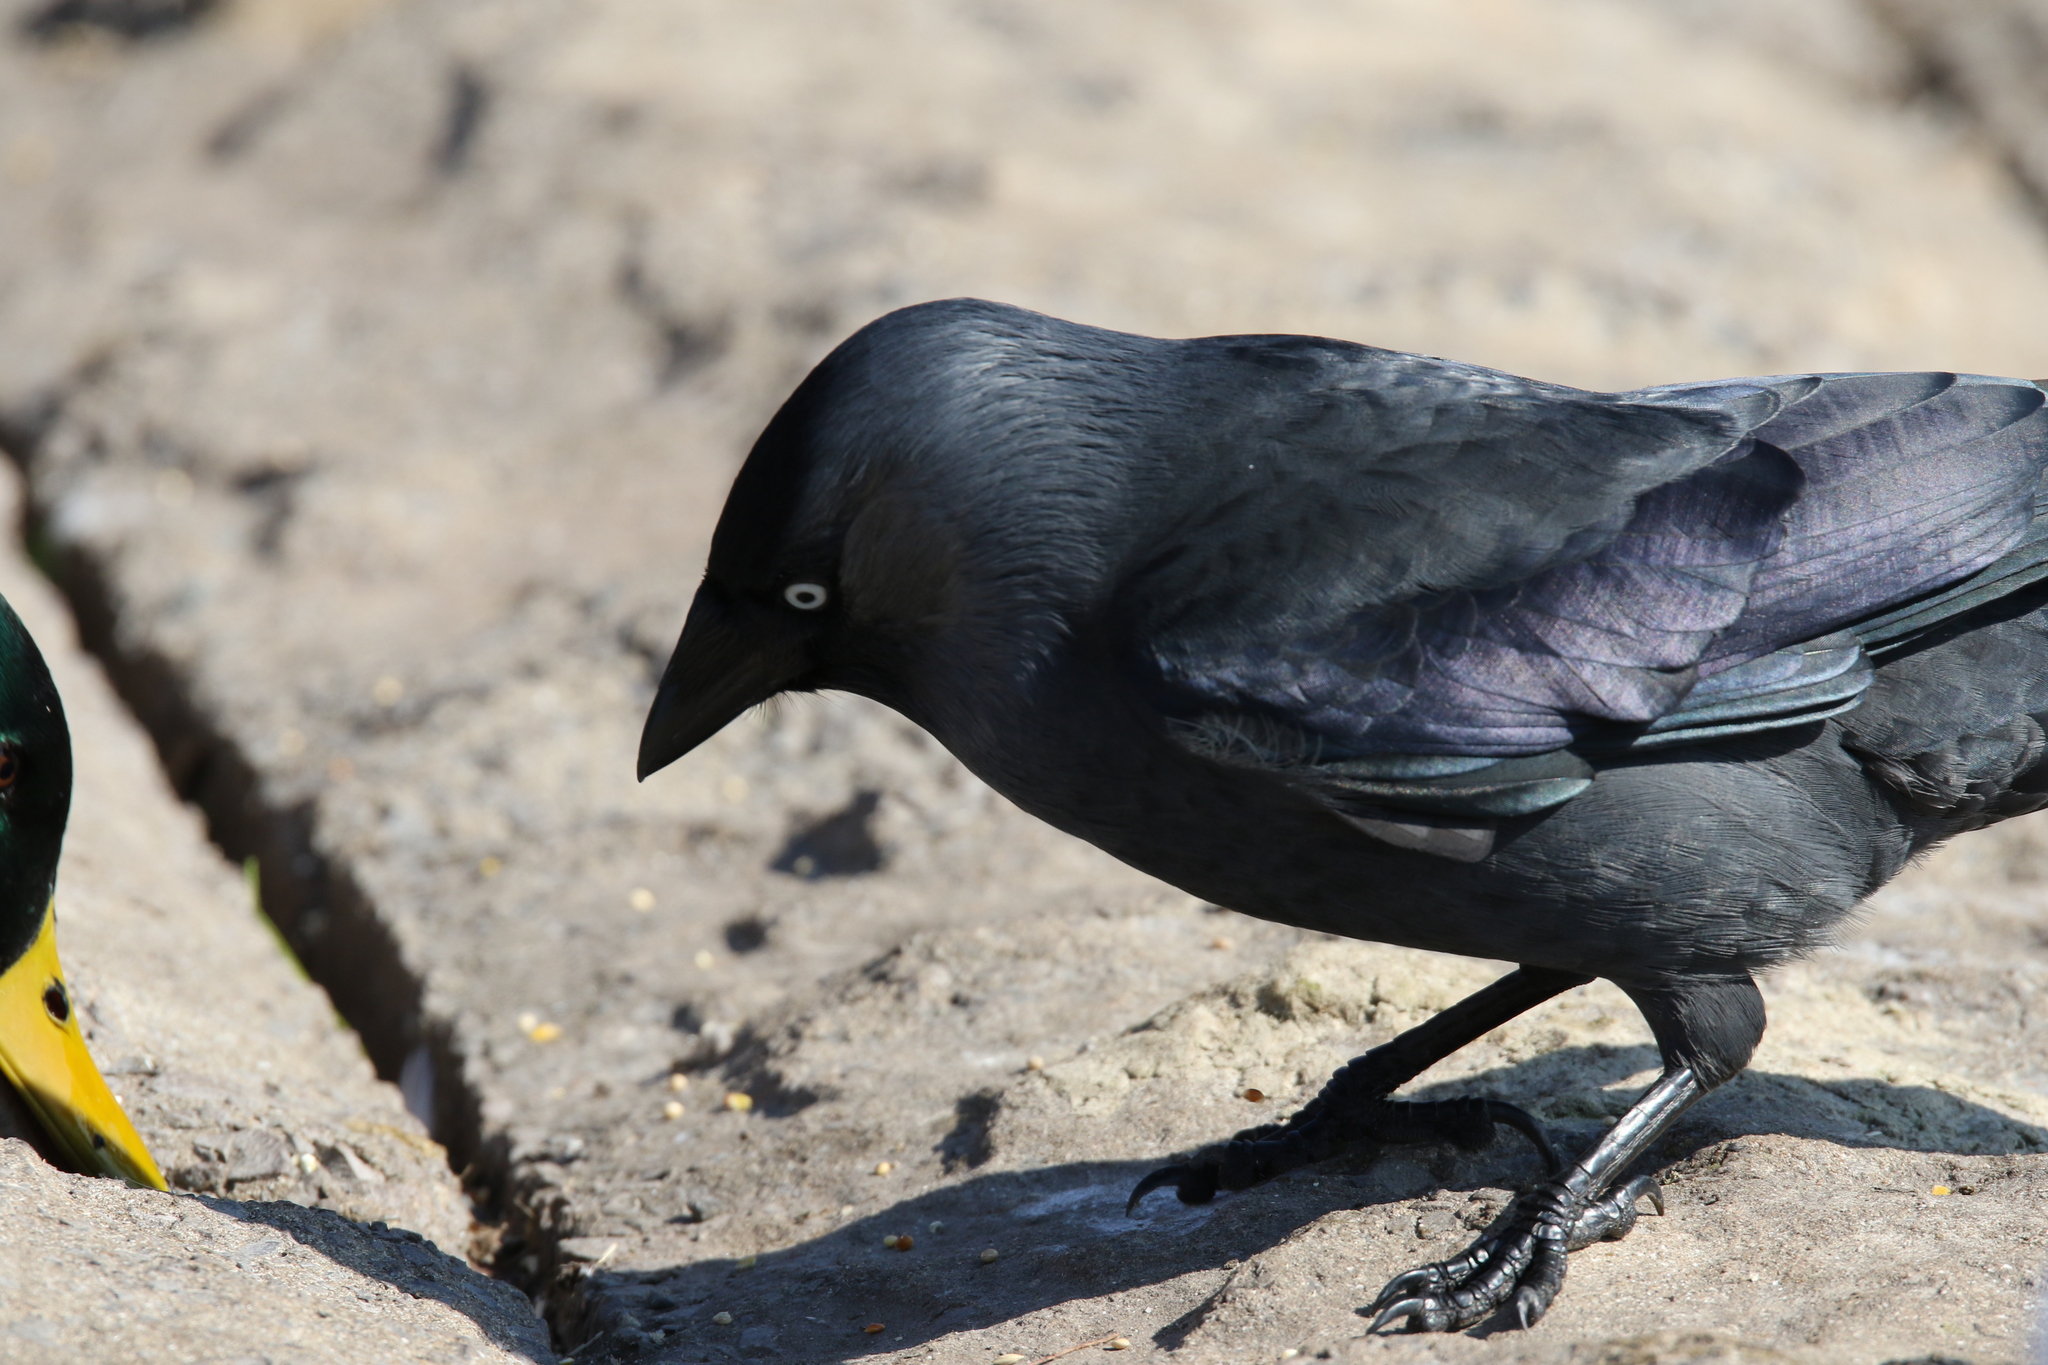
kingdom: Animalia
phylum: Chordata
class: Aves
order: Passeriformes
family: Corvidae
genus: Coloeus
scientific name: Coloeus monedula
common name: Western jackdaw
